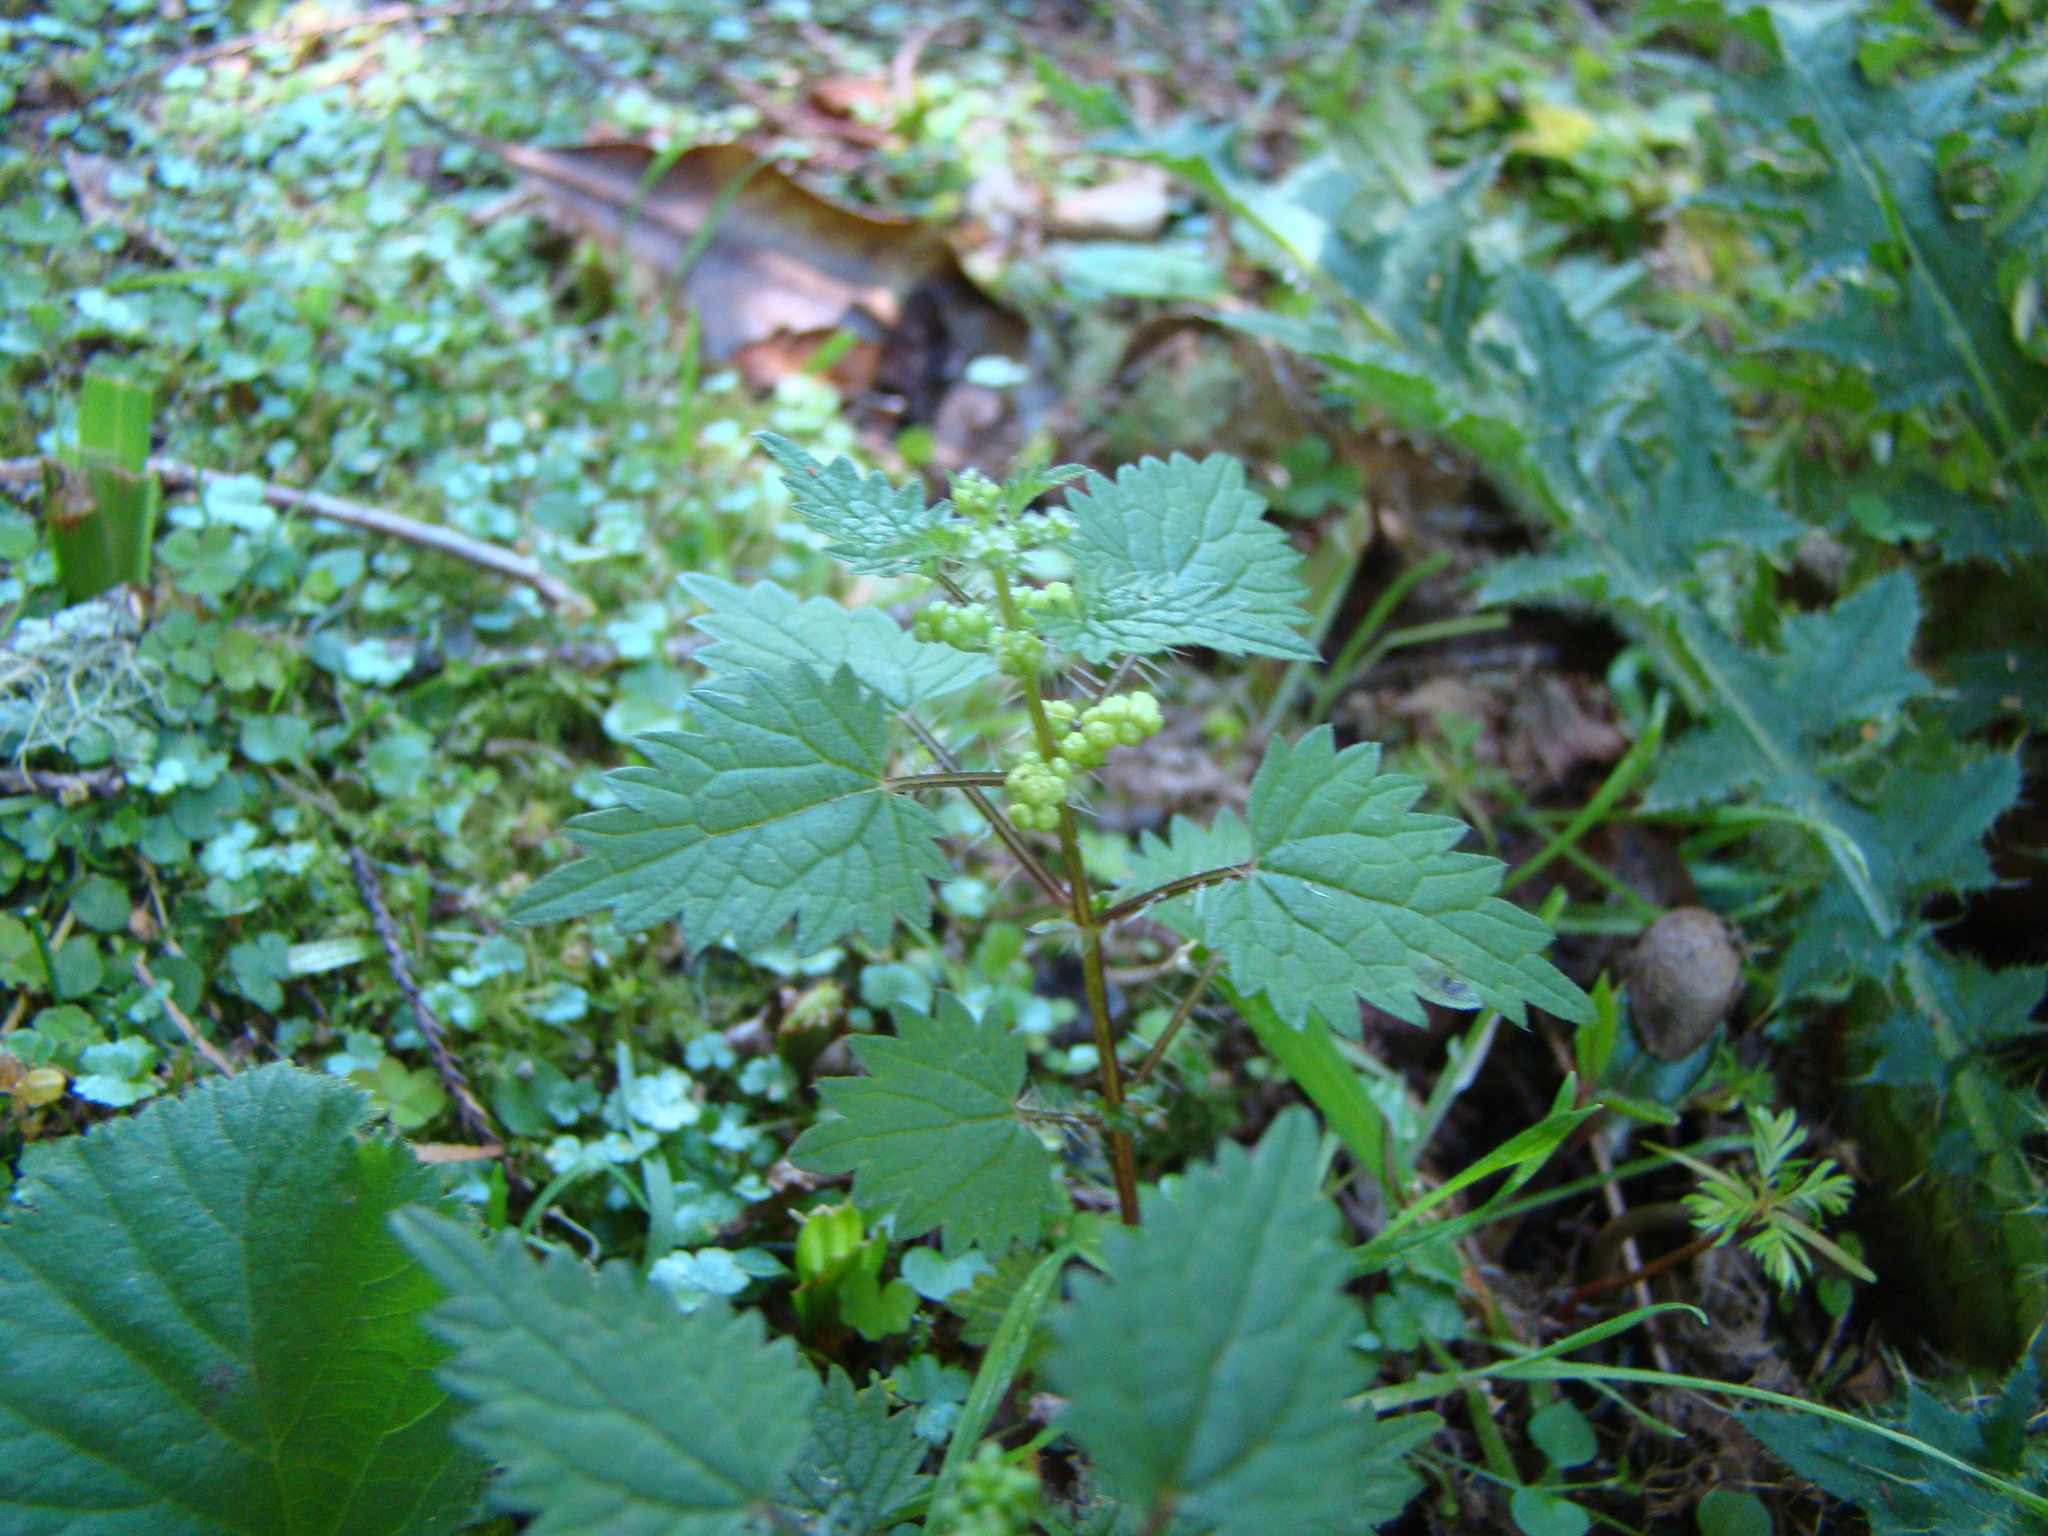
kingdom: Plantae
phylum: Tracheophyta
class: Magnoliopsida
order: Rosales
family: Urticaceae
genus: Urtica
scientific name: Urtica sykesii
